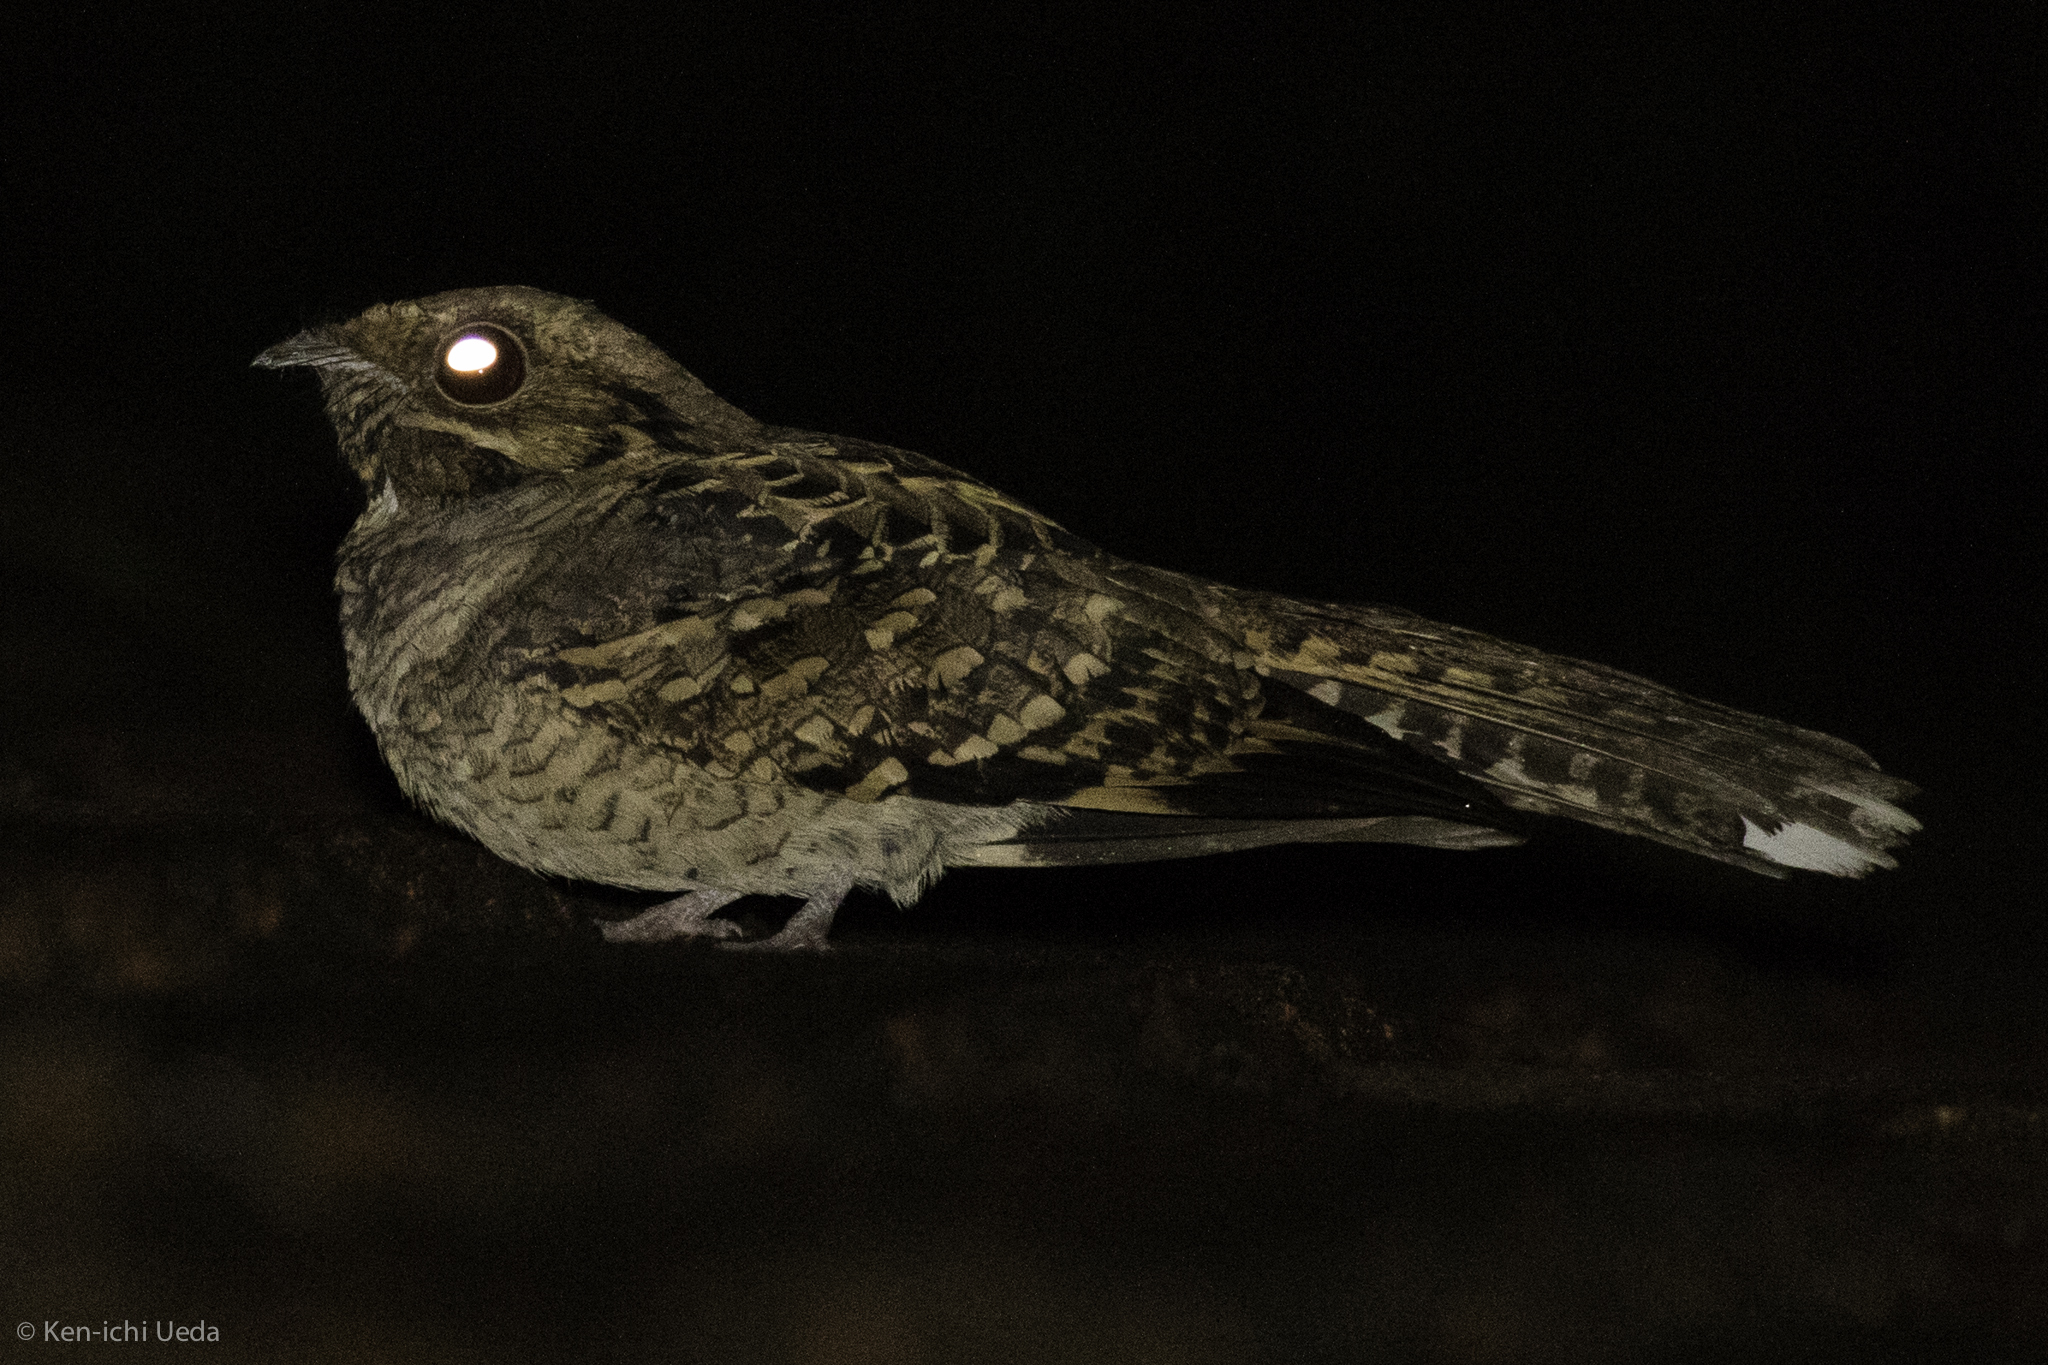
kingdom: Animalia
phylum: Chordata
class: Aves
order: Caprimulgiformes
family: Caprimulgidae
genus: Nyctidromus
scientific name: Nyctidromus albicollis
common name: Pauraque
